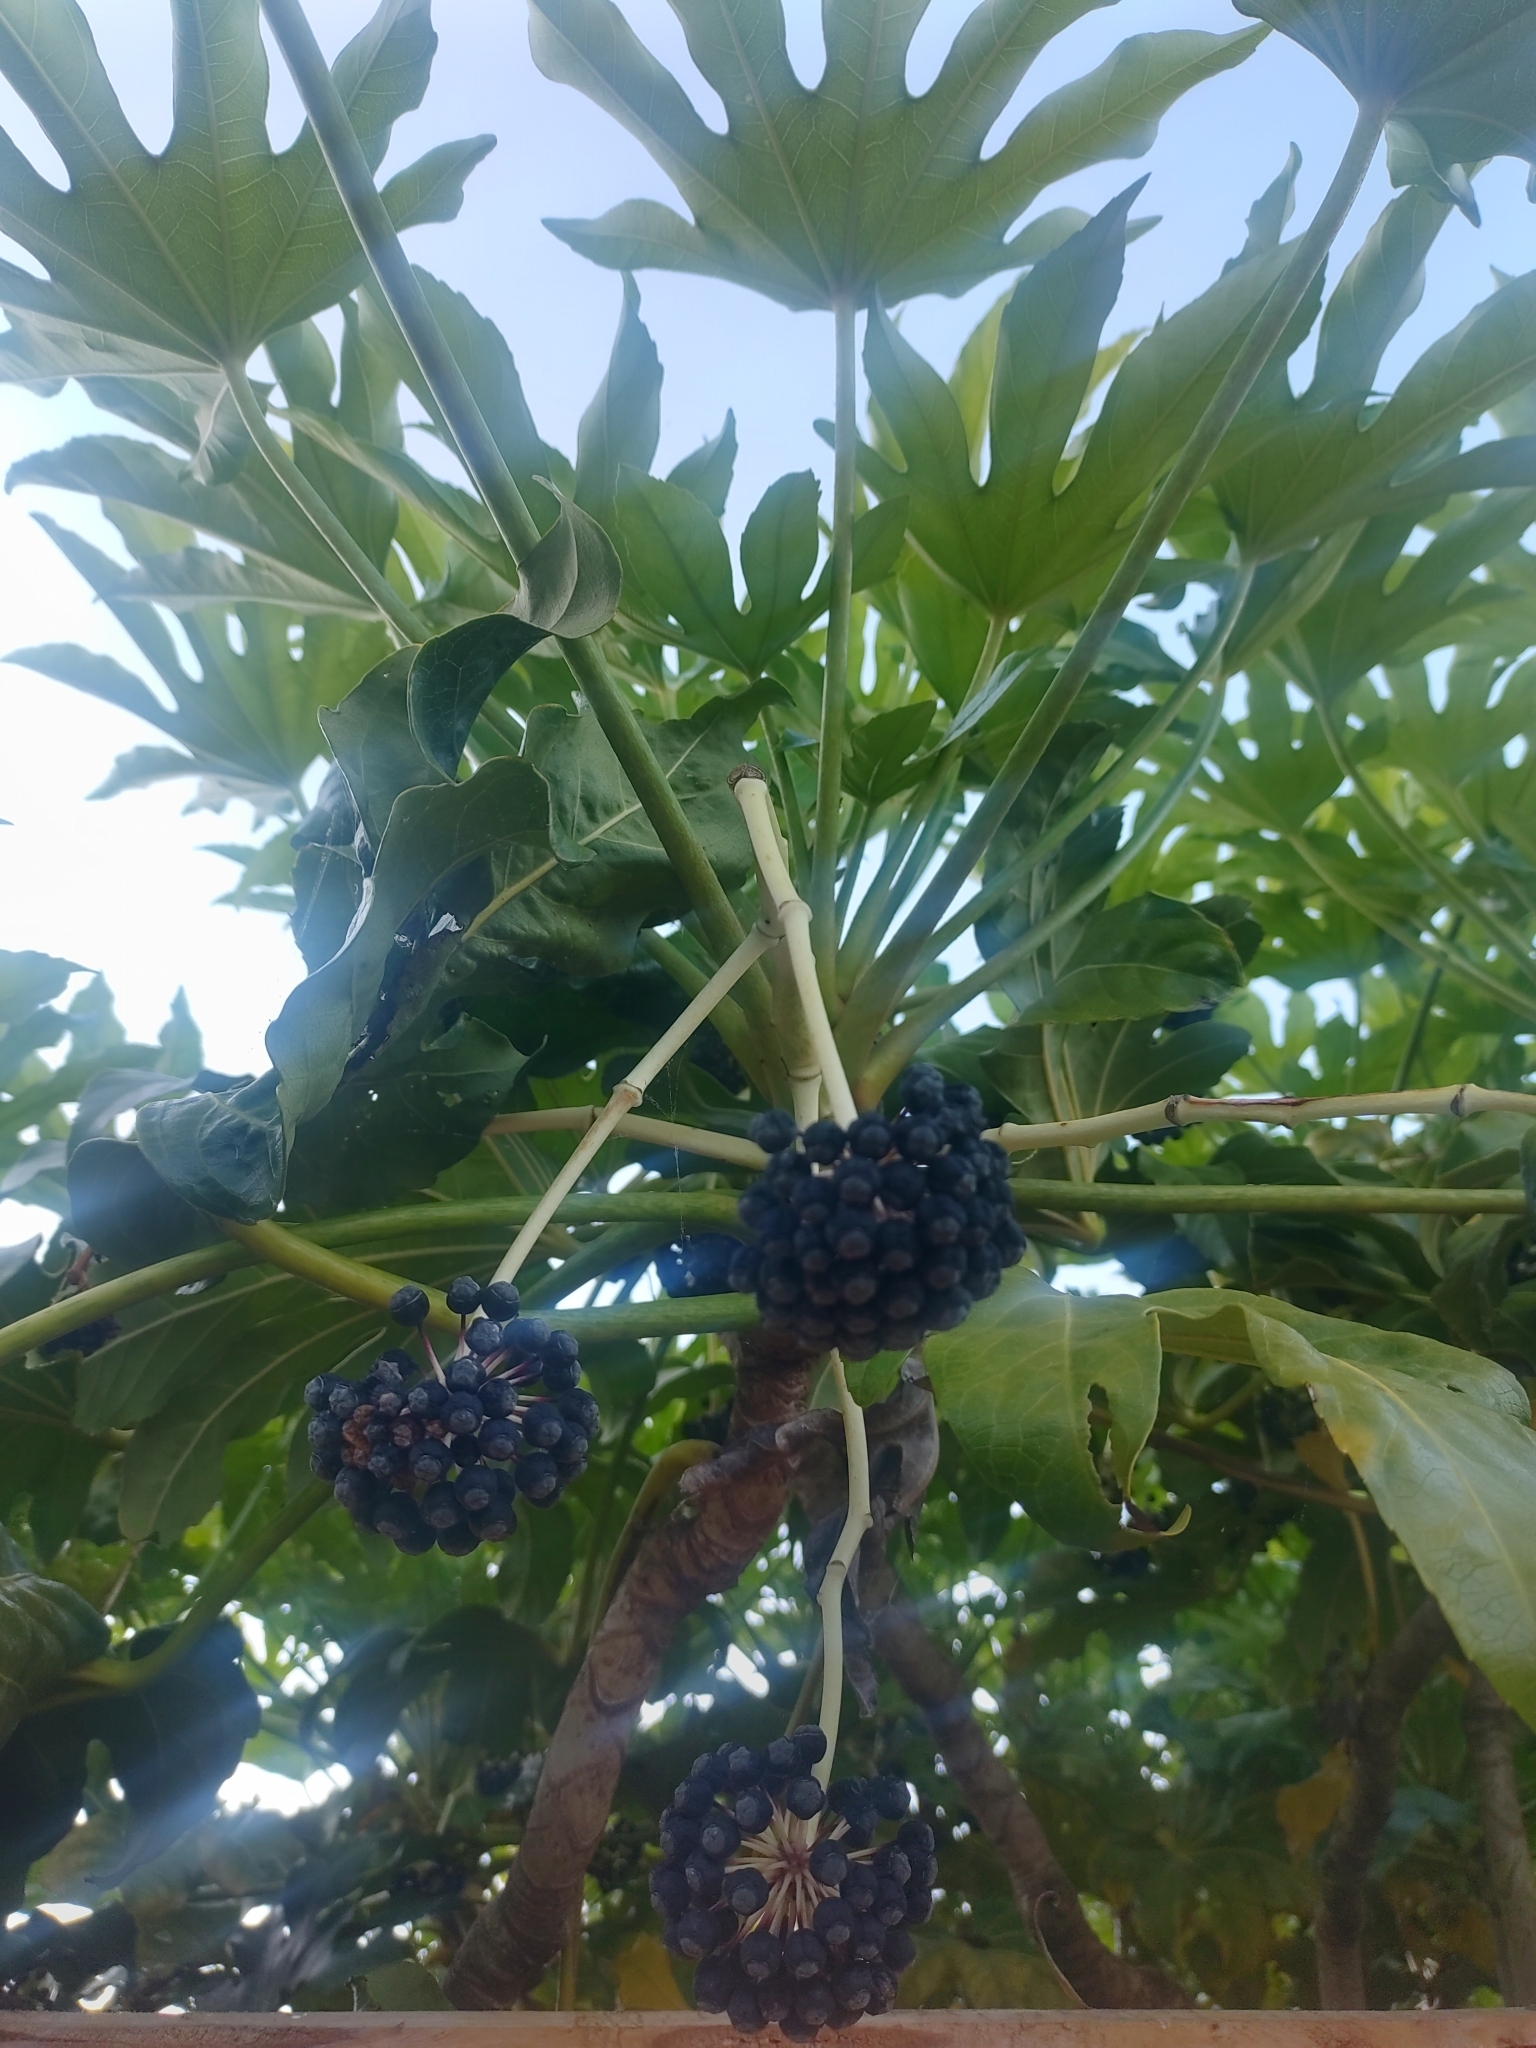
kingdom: Plantae
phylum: Tracheophyta
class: Magnoliopsida
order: Apiales
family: Araliaceae
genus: Fatsia
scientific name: Fatsia japonica
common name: Fatsia
